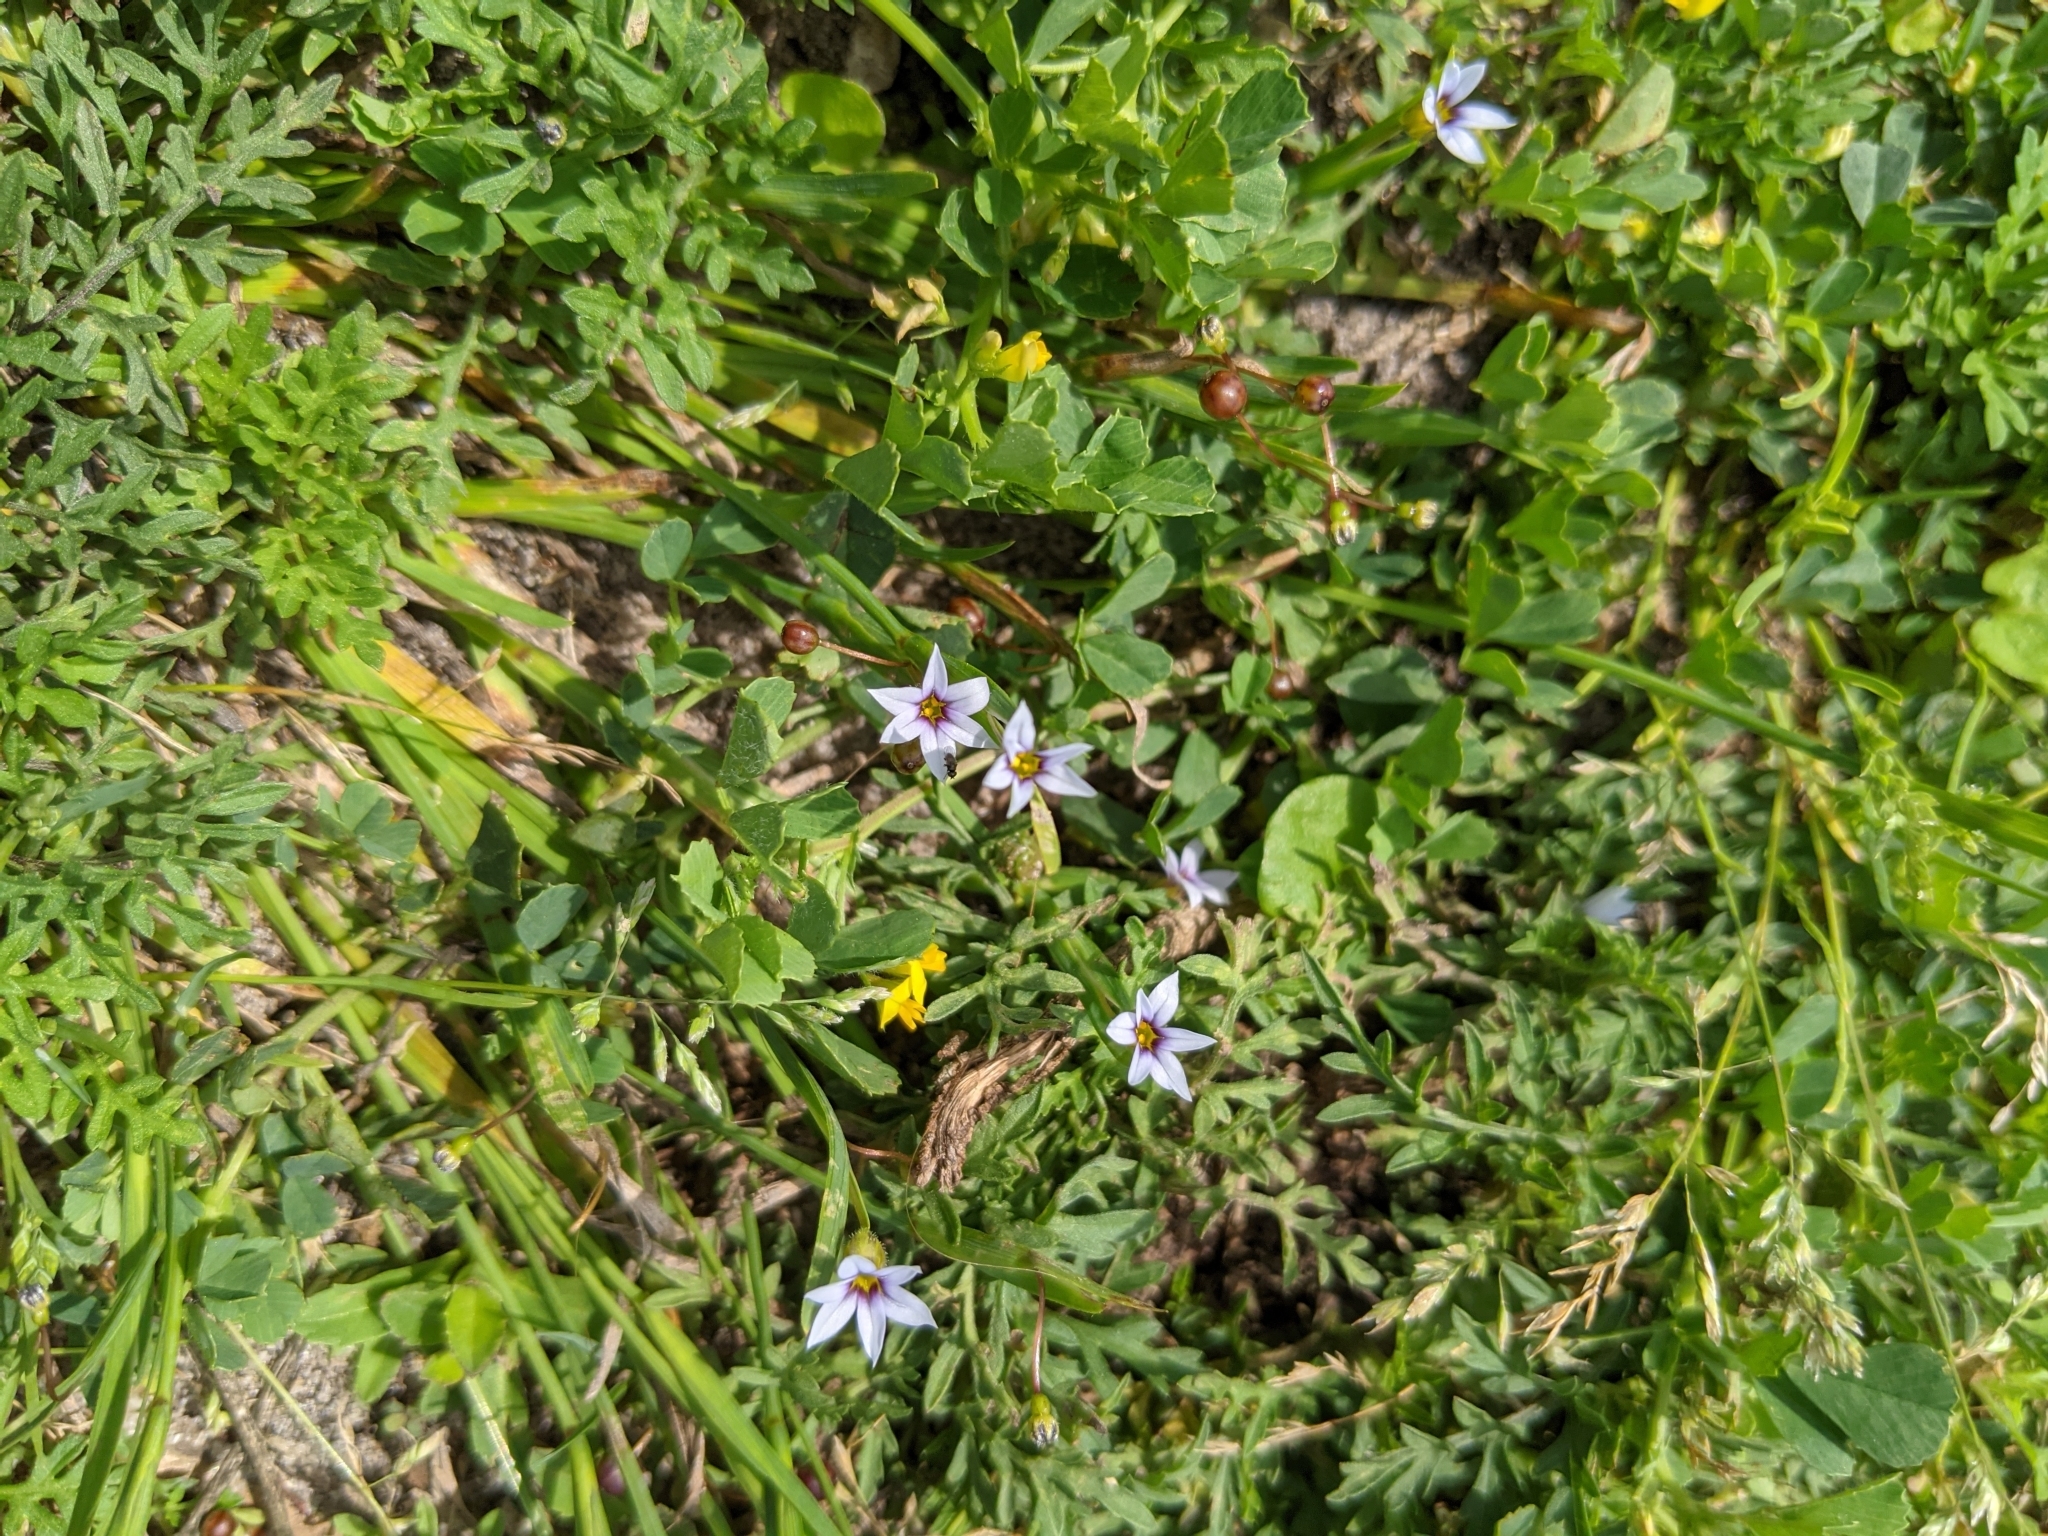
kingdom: Plantae
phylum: Tracheophyta
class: Liliopsida
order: Asparagales
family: Iridaceae
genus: Sisyrinchium
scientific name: Sisyrinchium micranthum
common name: Bermuda pigroot
